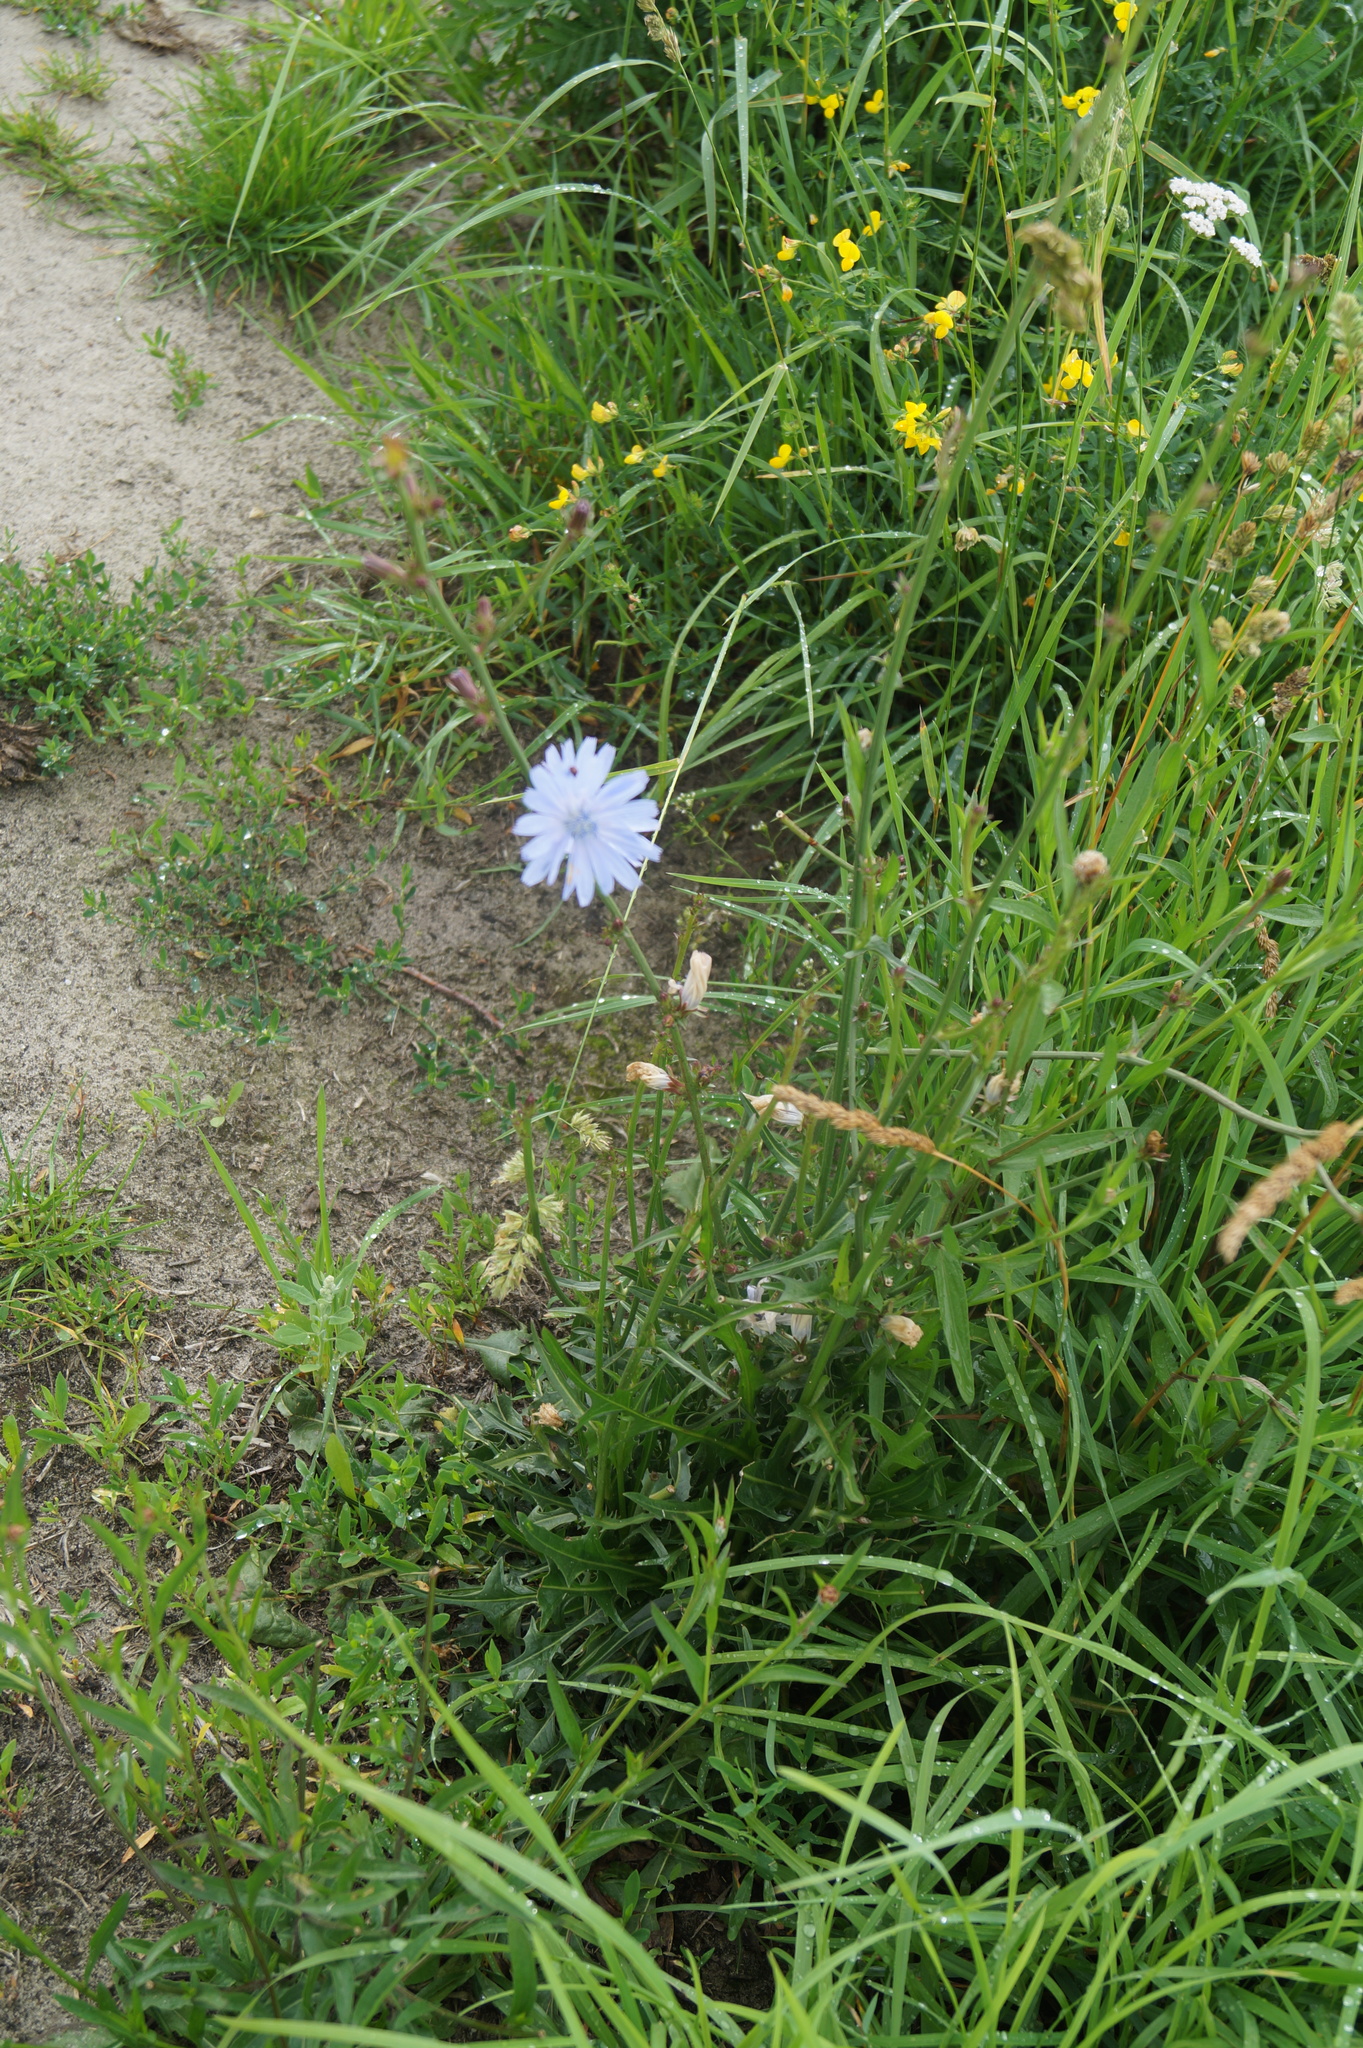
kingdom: Plantae
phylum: Tracheophyta
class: Magnoliopsida
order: Asterales
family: Asteraceae
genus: Cichorium
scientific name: Cichorium intybus
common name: Chicory
